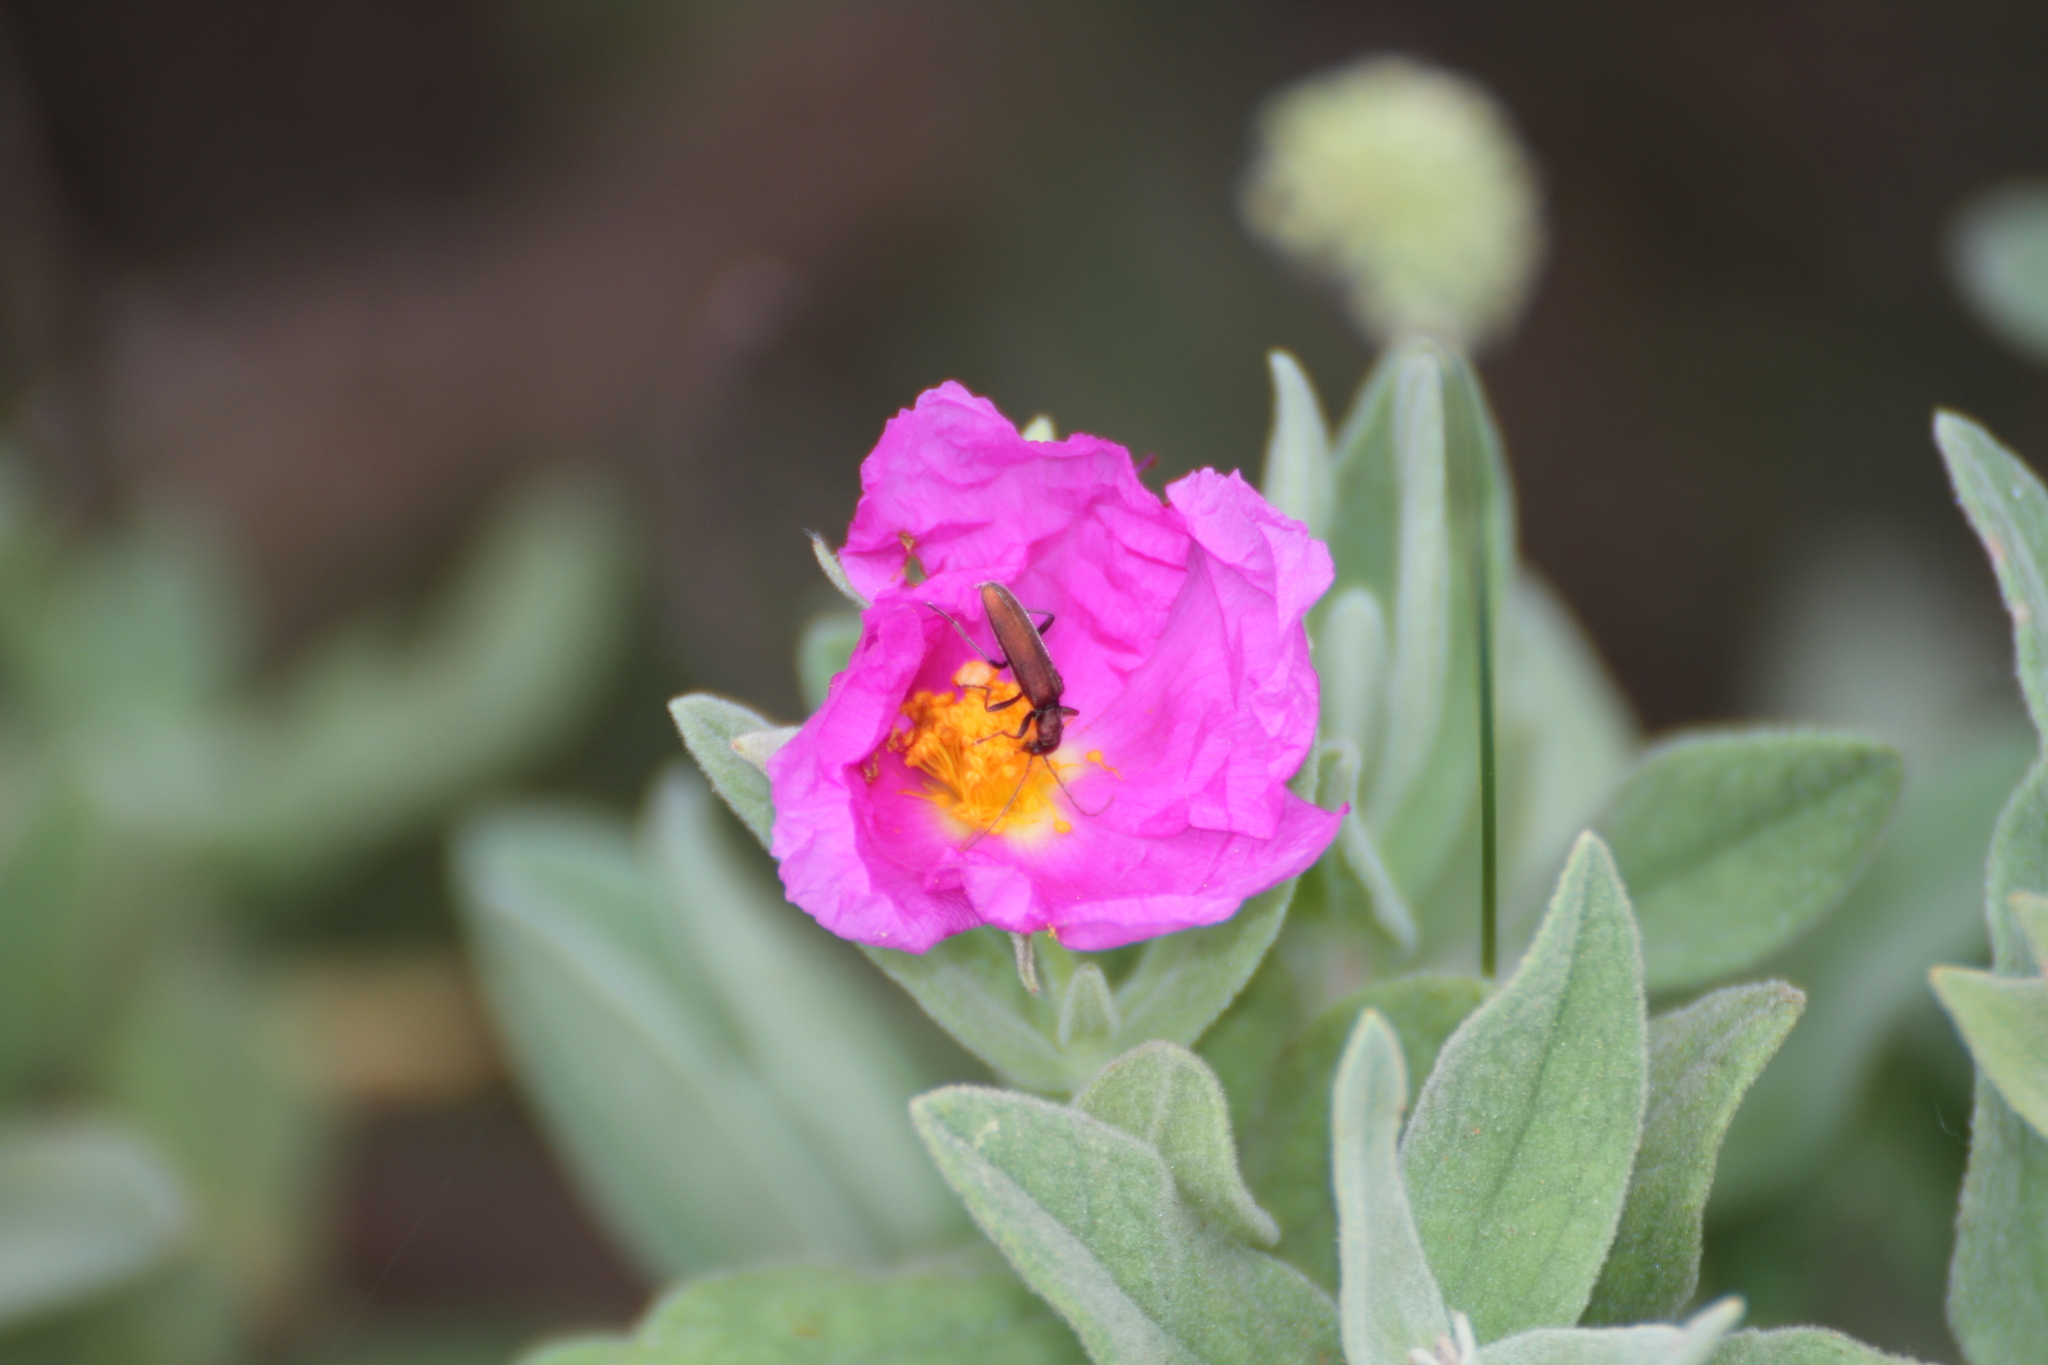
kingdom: Animalia
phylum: Arthropoda
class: Insecta
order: Coleoptera
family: Oedemeridae
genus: Chrysanthia
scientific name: Chrysanthia viridissima
